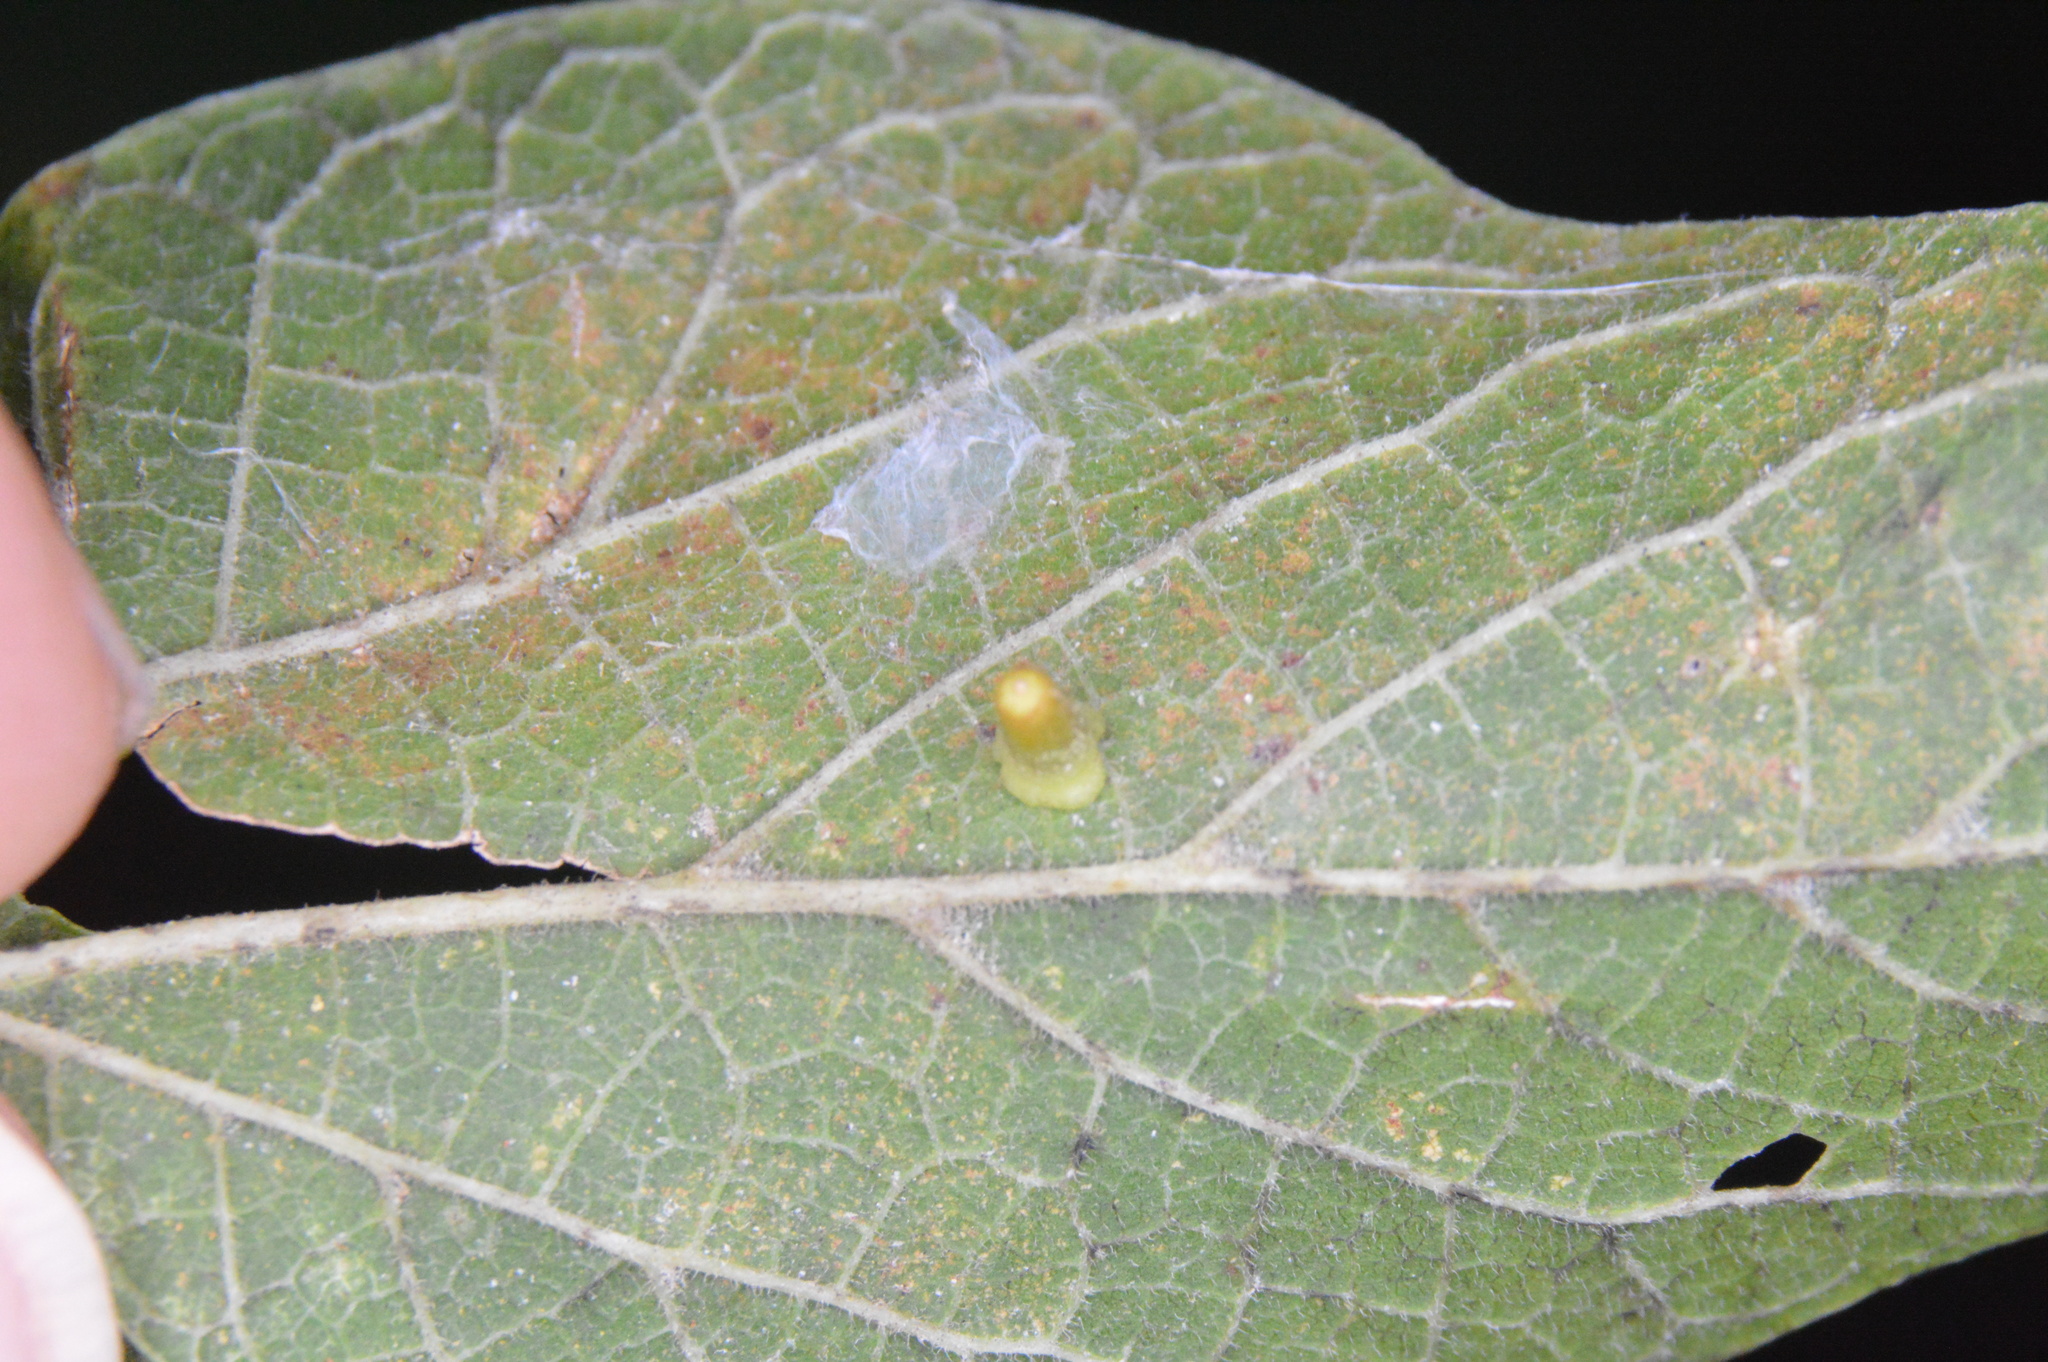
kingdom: Animalia
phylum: Arthropoda
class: Insecta
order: Diptera
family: Cecidomyiidae
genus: Celticecis
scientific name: Celticecis aciculata
